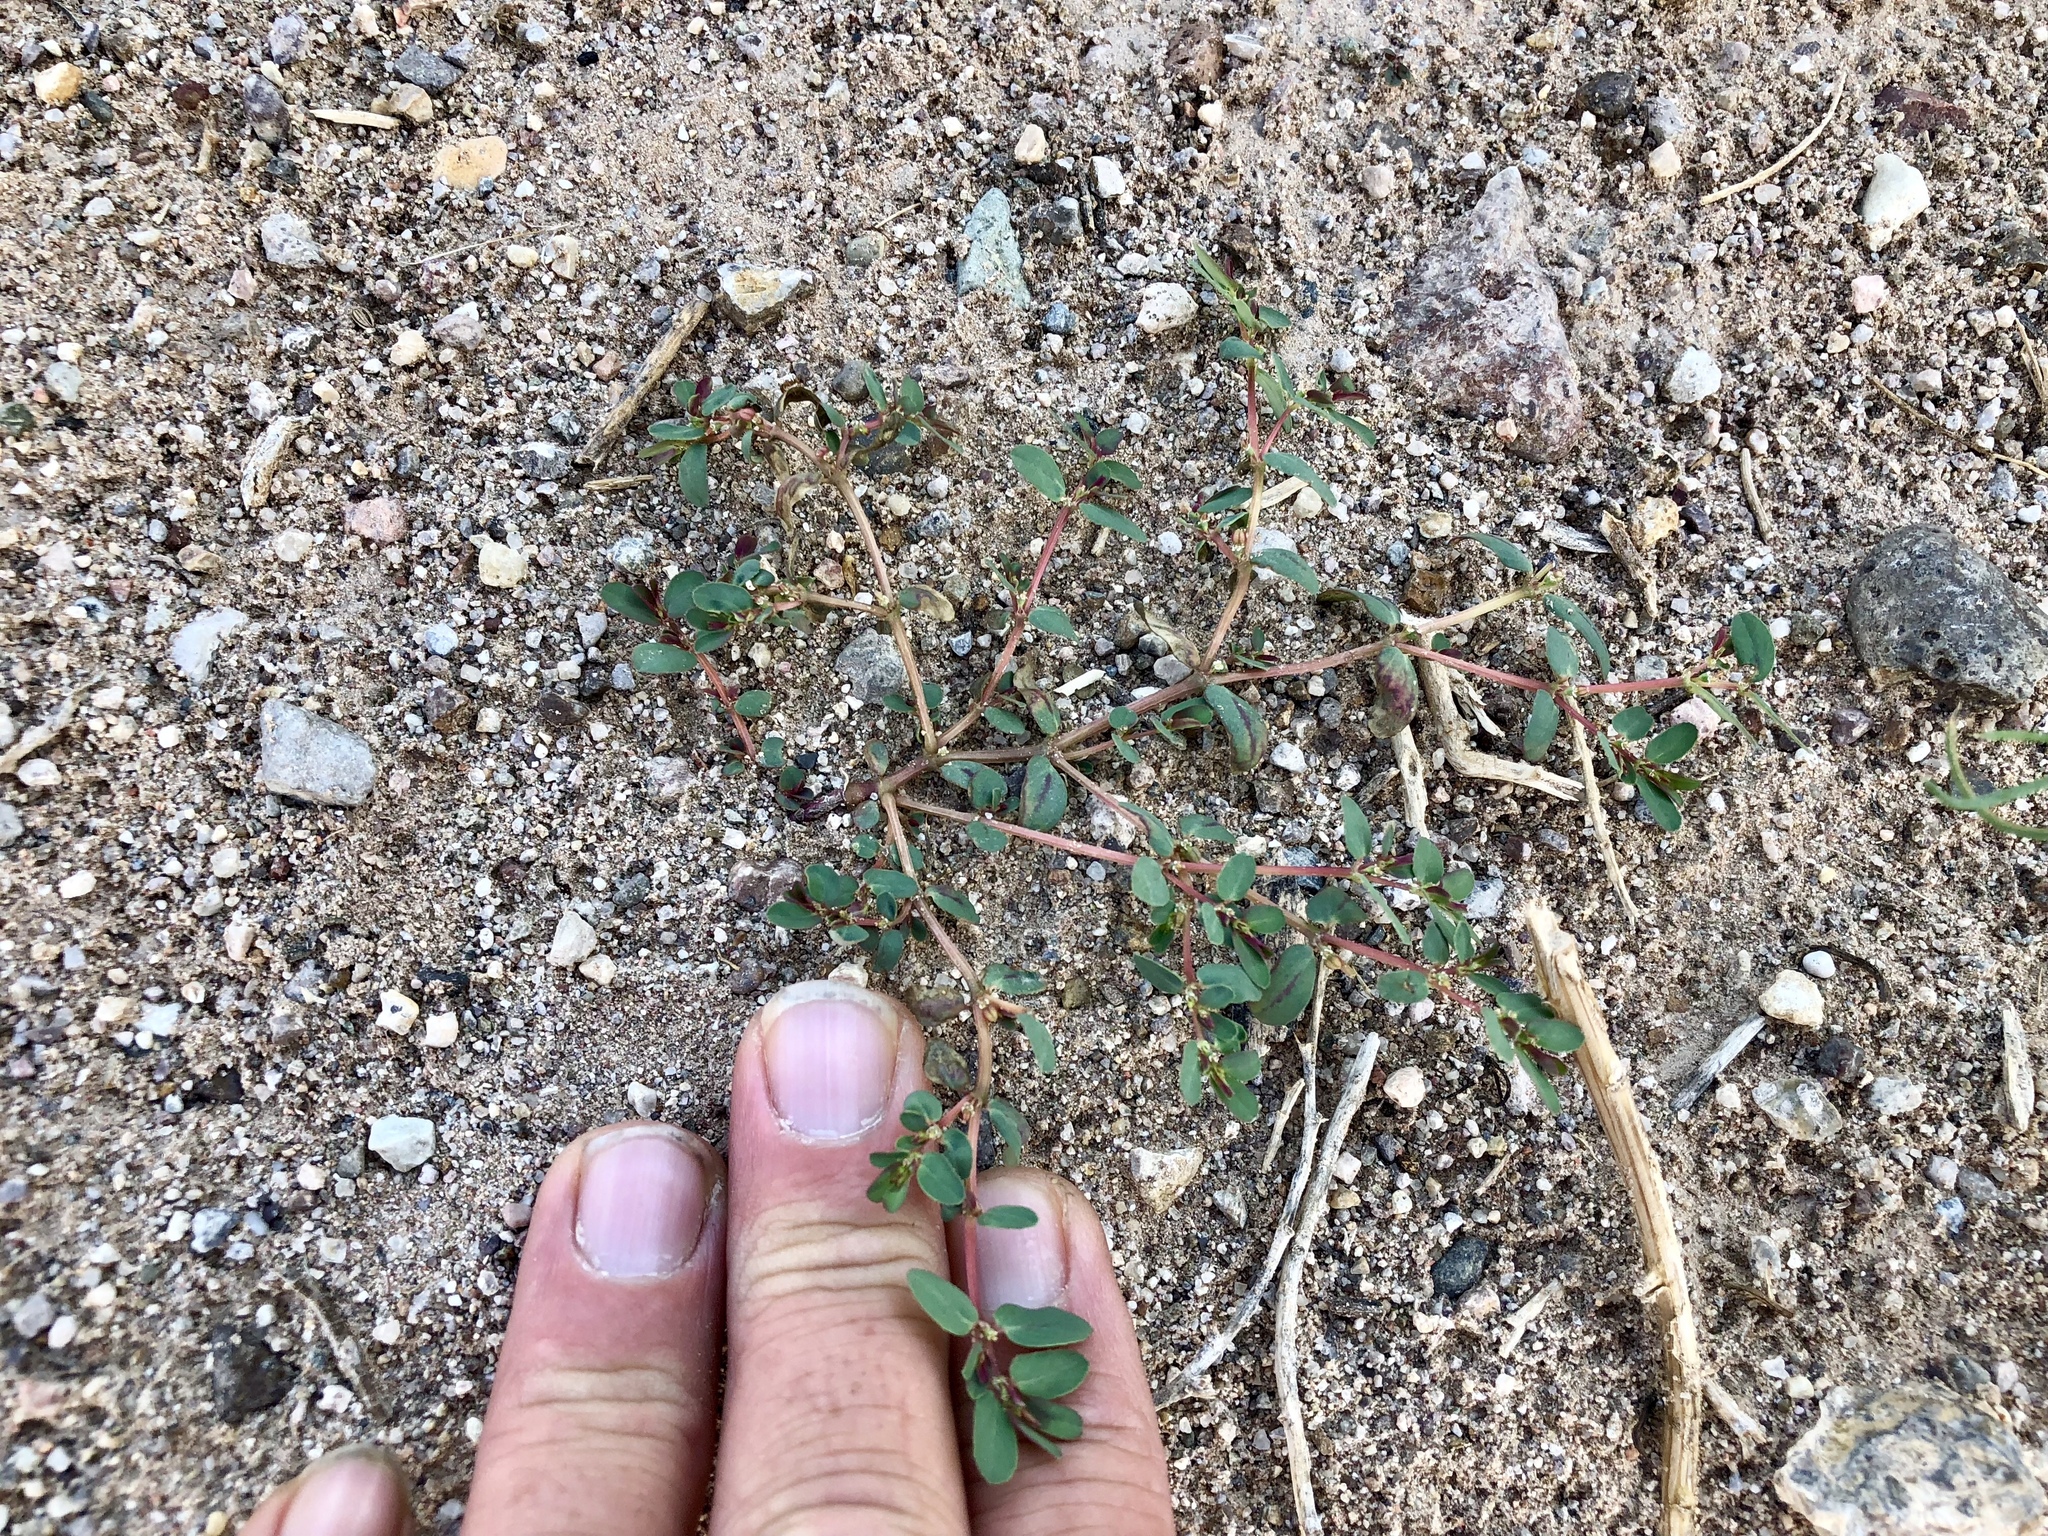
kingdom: Plantae
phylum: Tracheophyta
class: Magnoliopsida
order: Malpighiales
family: Euphorbiaceae
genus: Euphorbia
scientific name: Euphorbia serpillifolia
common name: Thyme-leaf spurge
